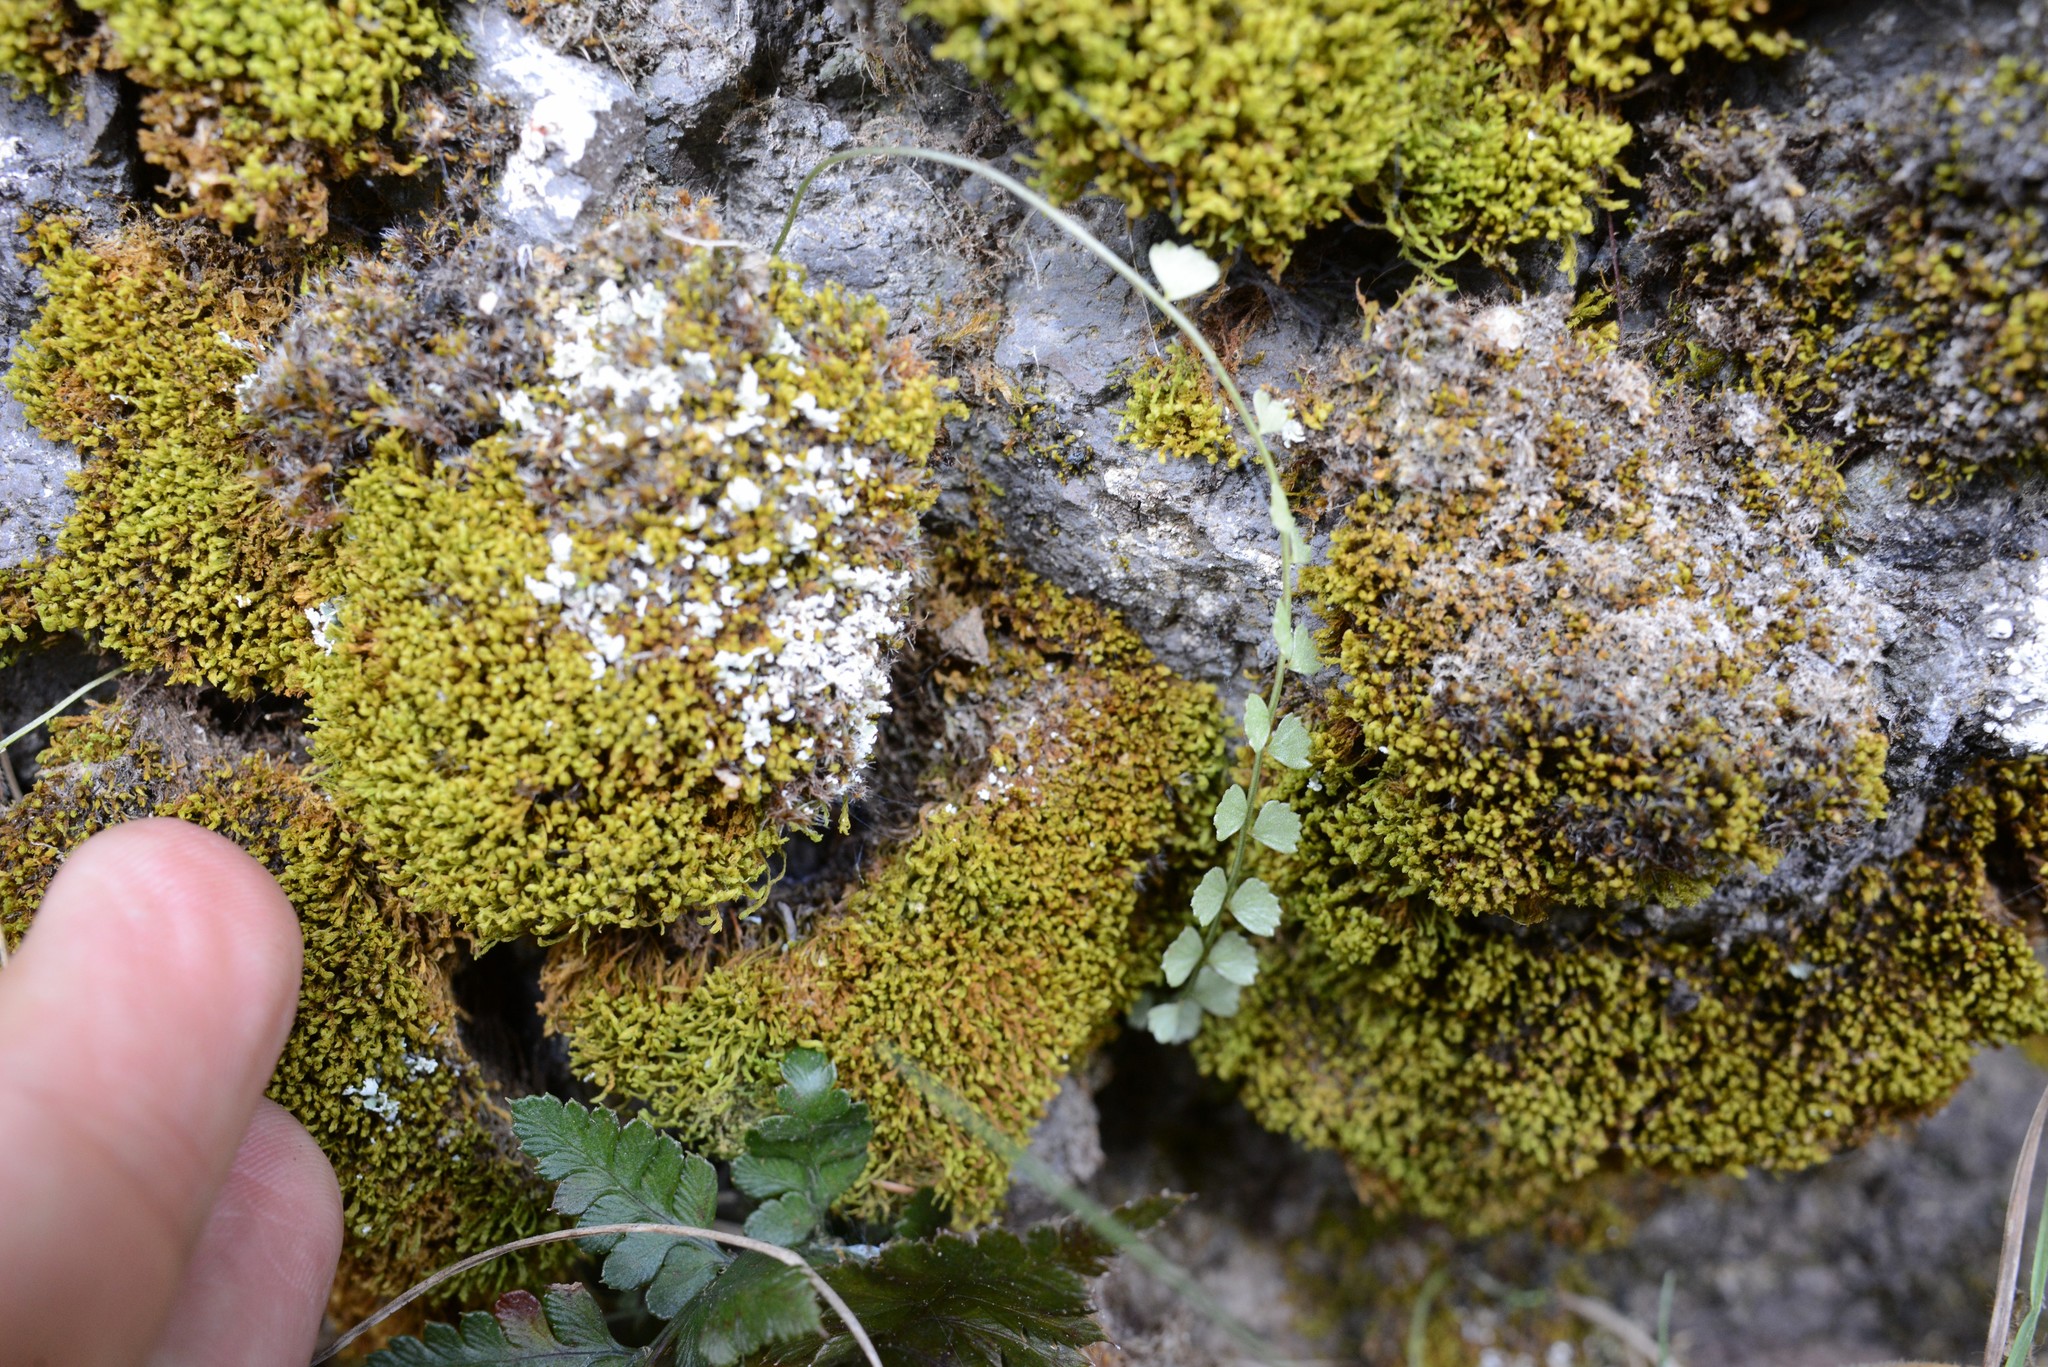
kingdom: Plantae
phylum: Tracheophyta
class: Polypodiopsida
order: Polypodiales
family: Aspleniaceae
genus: Asplenium
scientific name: Asplenium flabellifolium
